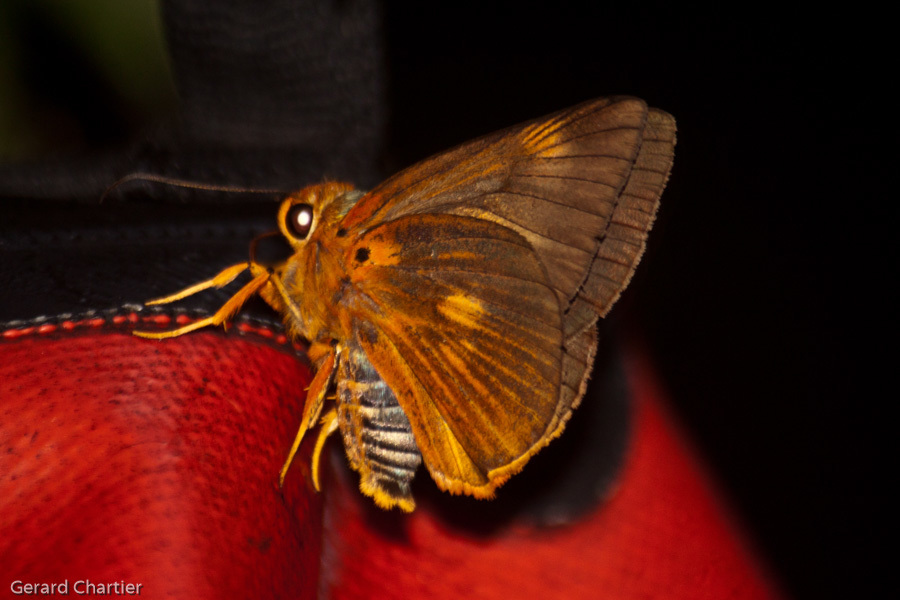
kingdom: Animalia
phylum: Arthropoda
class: Insecta
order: Lepidoptera
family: Hesperiidae
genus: Bibasis
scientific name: Bibasis etelka
